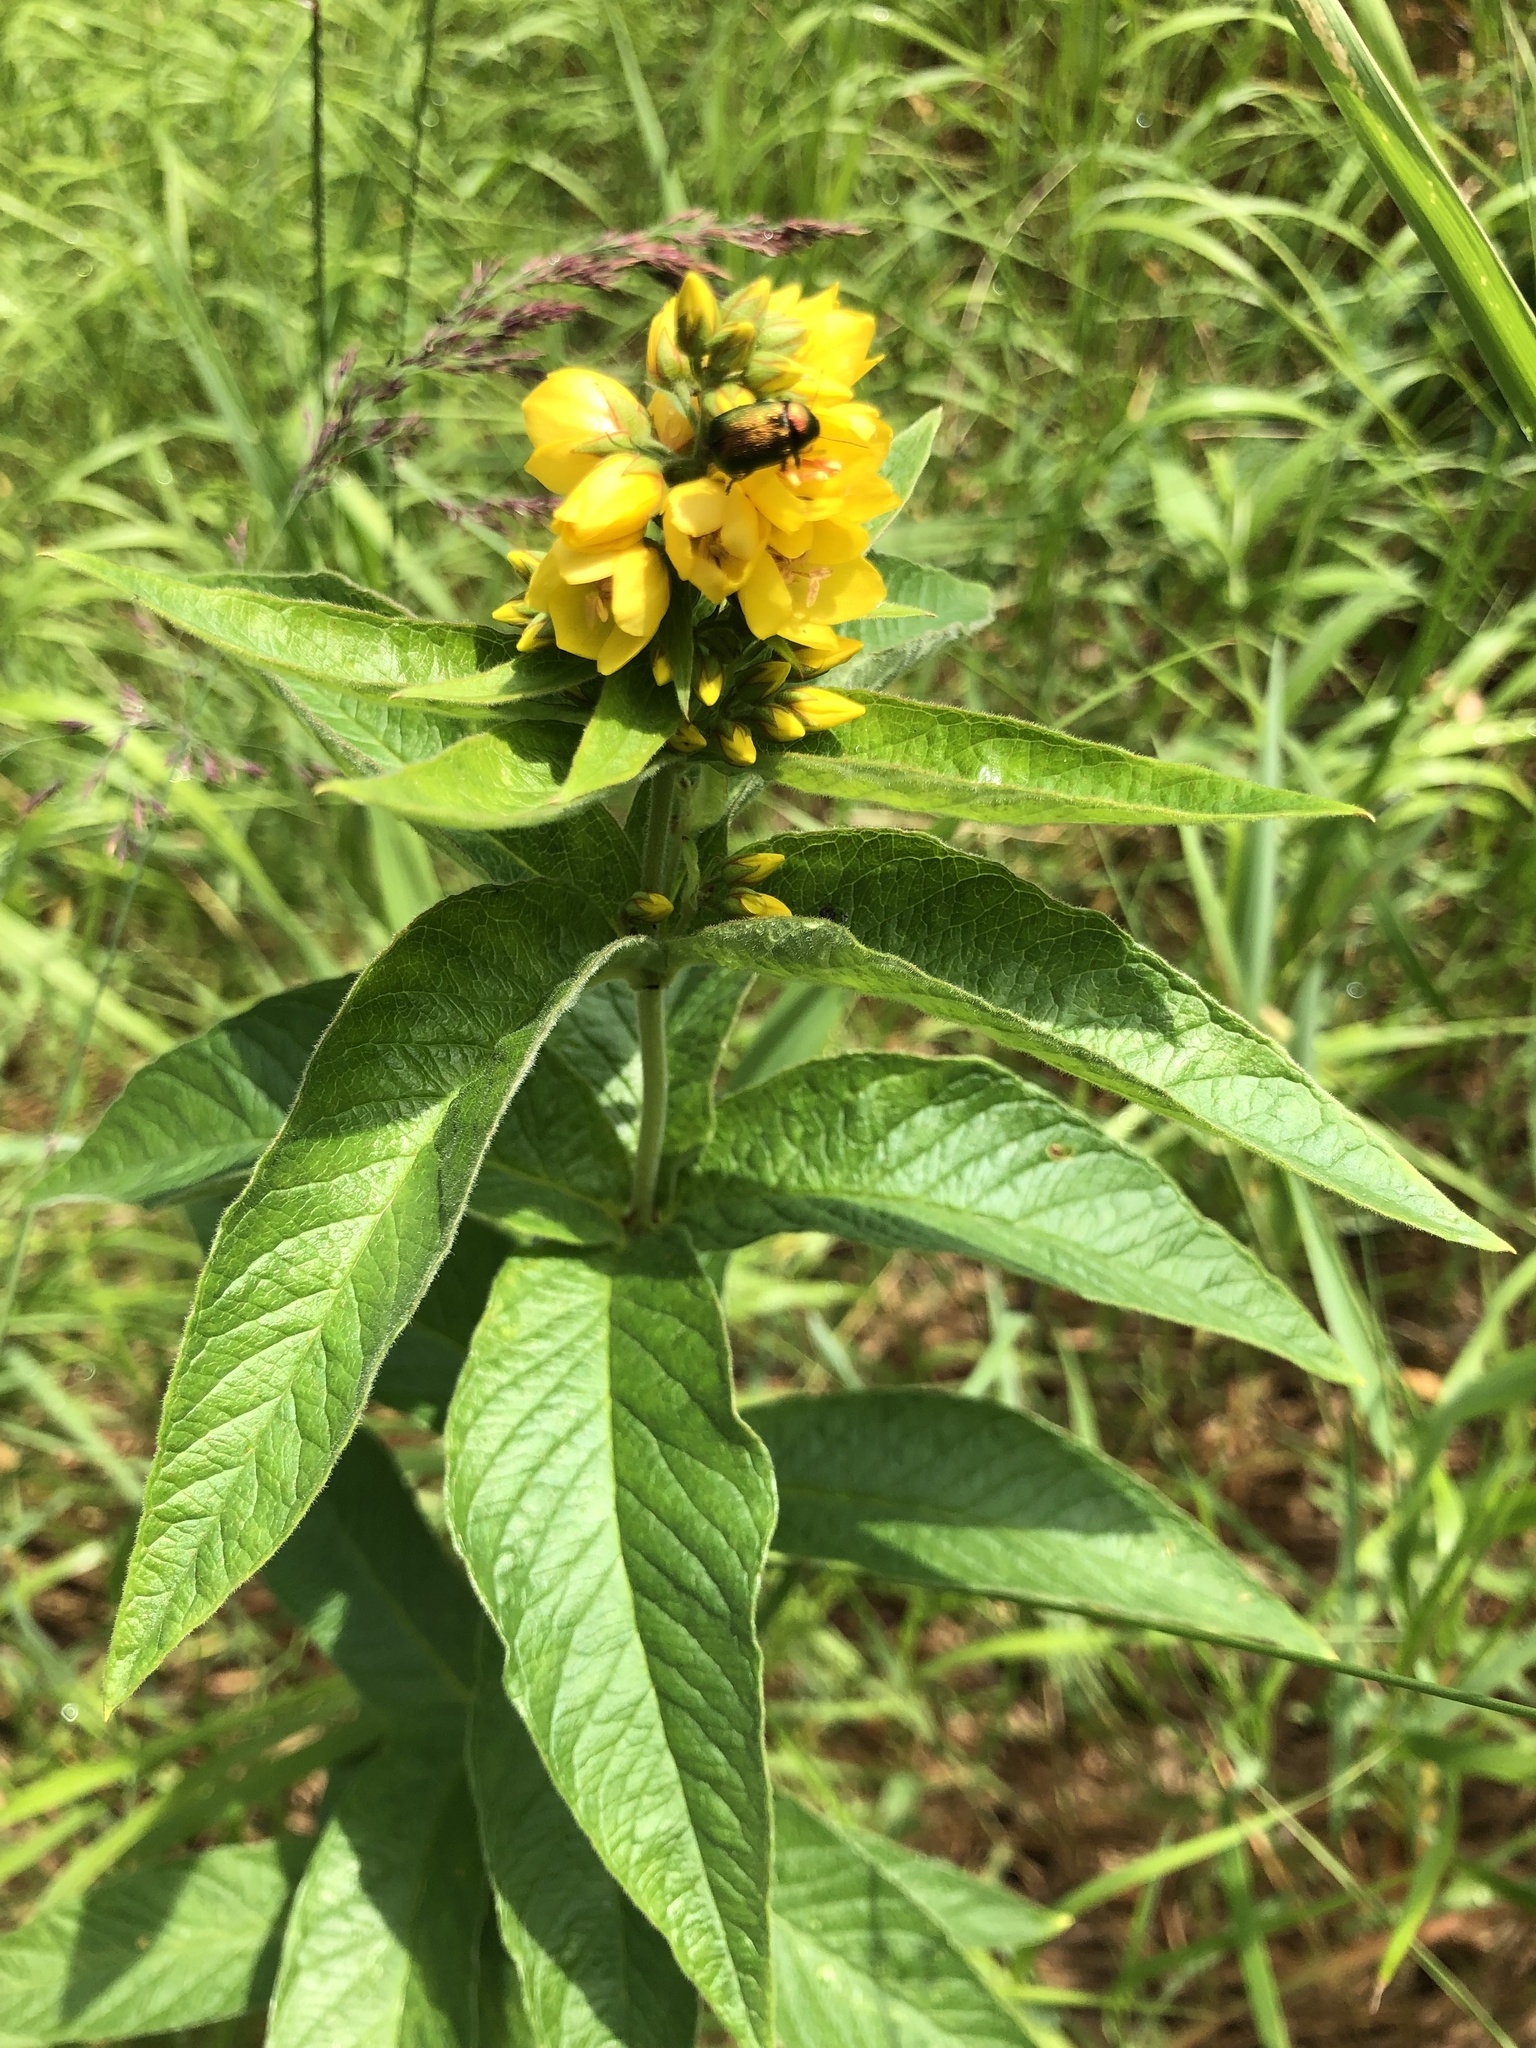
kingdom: Plantae
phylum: Tracheophyta
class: Magnoliopsida
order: Ericales
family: Primulaceae
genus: Lysimachia
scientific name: Lysimachia vulgaris
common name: Yellow loosestrife
